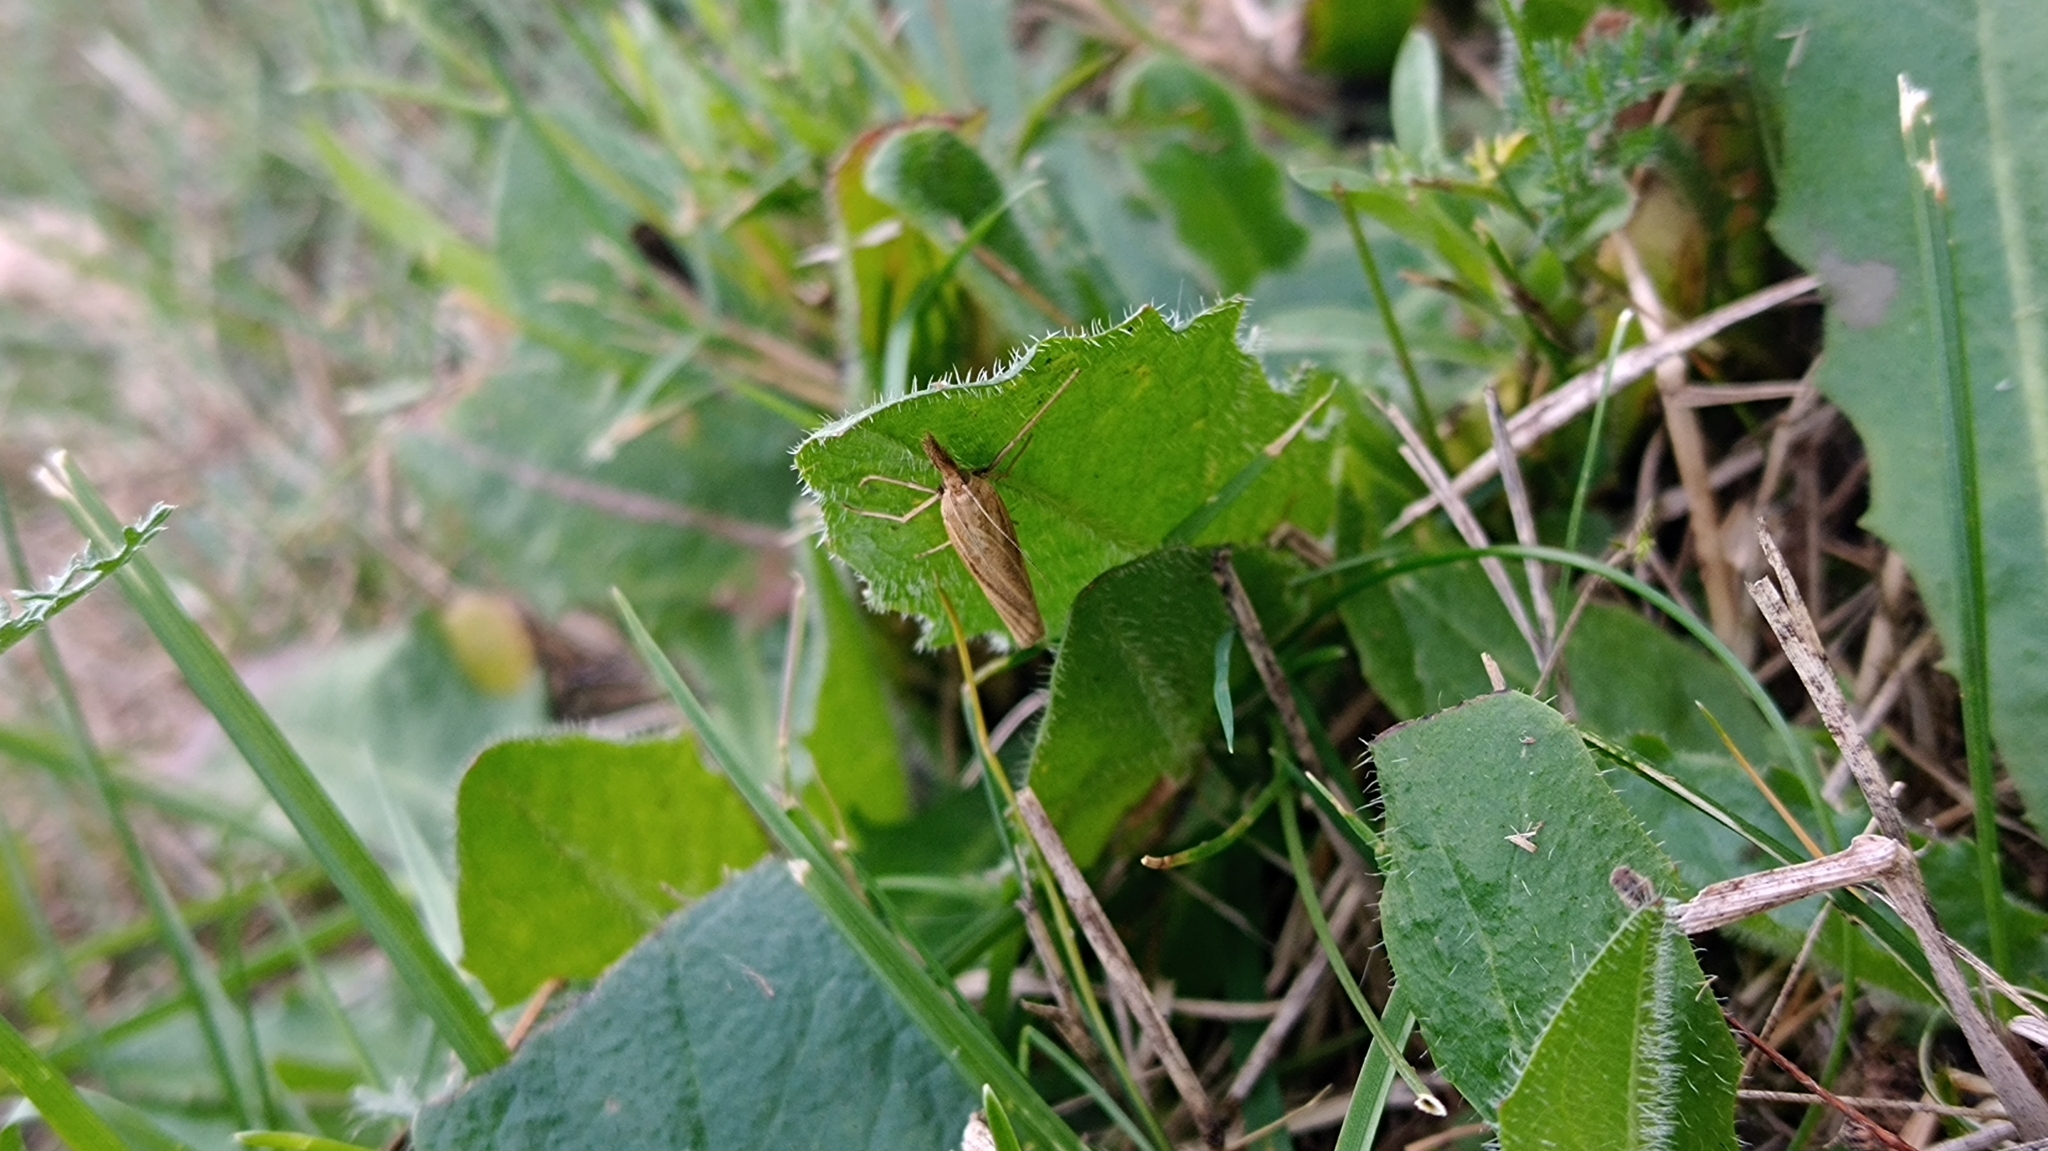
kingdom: Animalia
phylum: Arthropoda
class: Insecta
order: Lepidoptera
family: Crambidae
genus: Agriphila
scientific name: Agriphila tristellus
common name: Common grass-veneer
